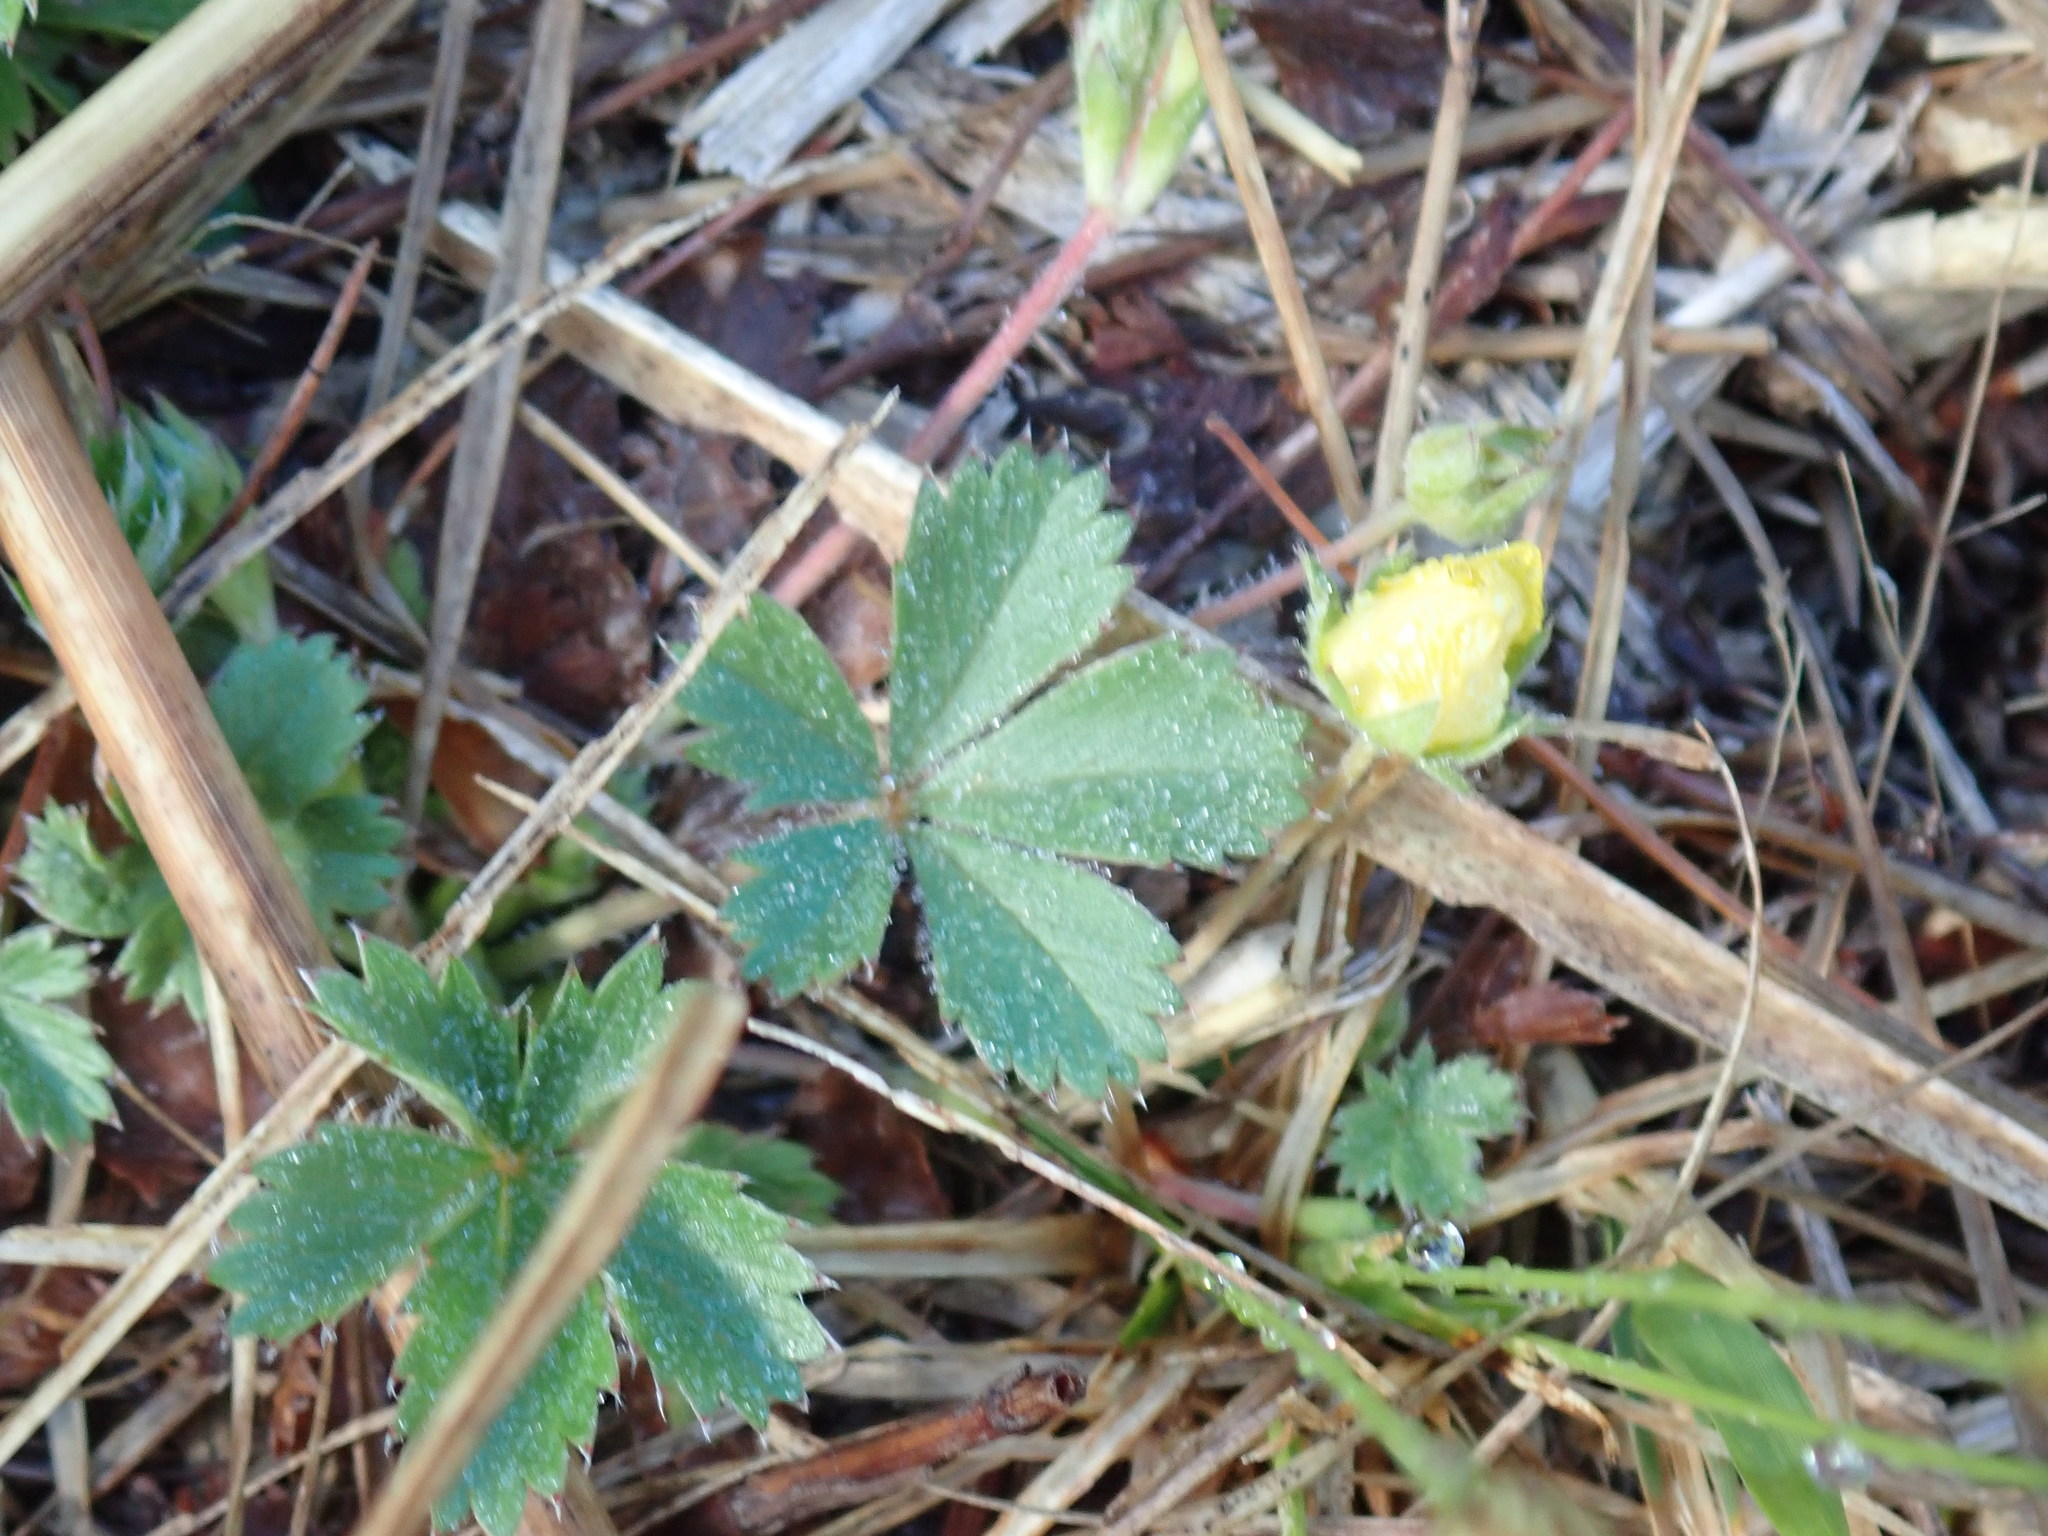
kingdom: Plantae
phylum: Tracheophyta
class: Magnoliopsida
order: Rosales
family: Rosaceae
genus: Potentilla
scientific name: Potentilla canadensis
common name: Canada cinquefoil
